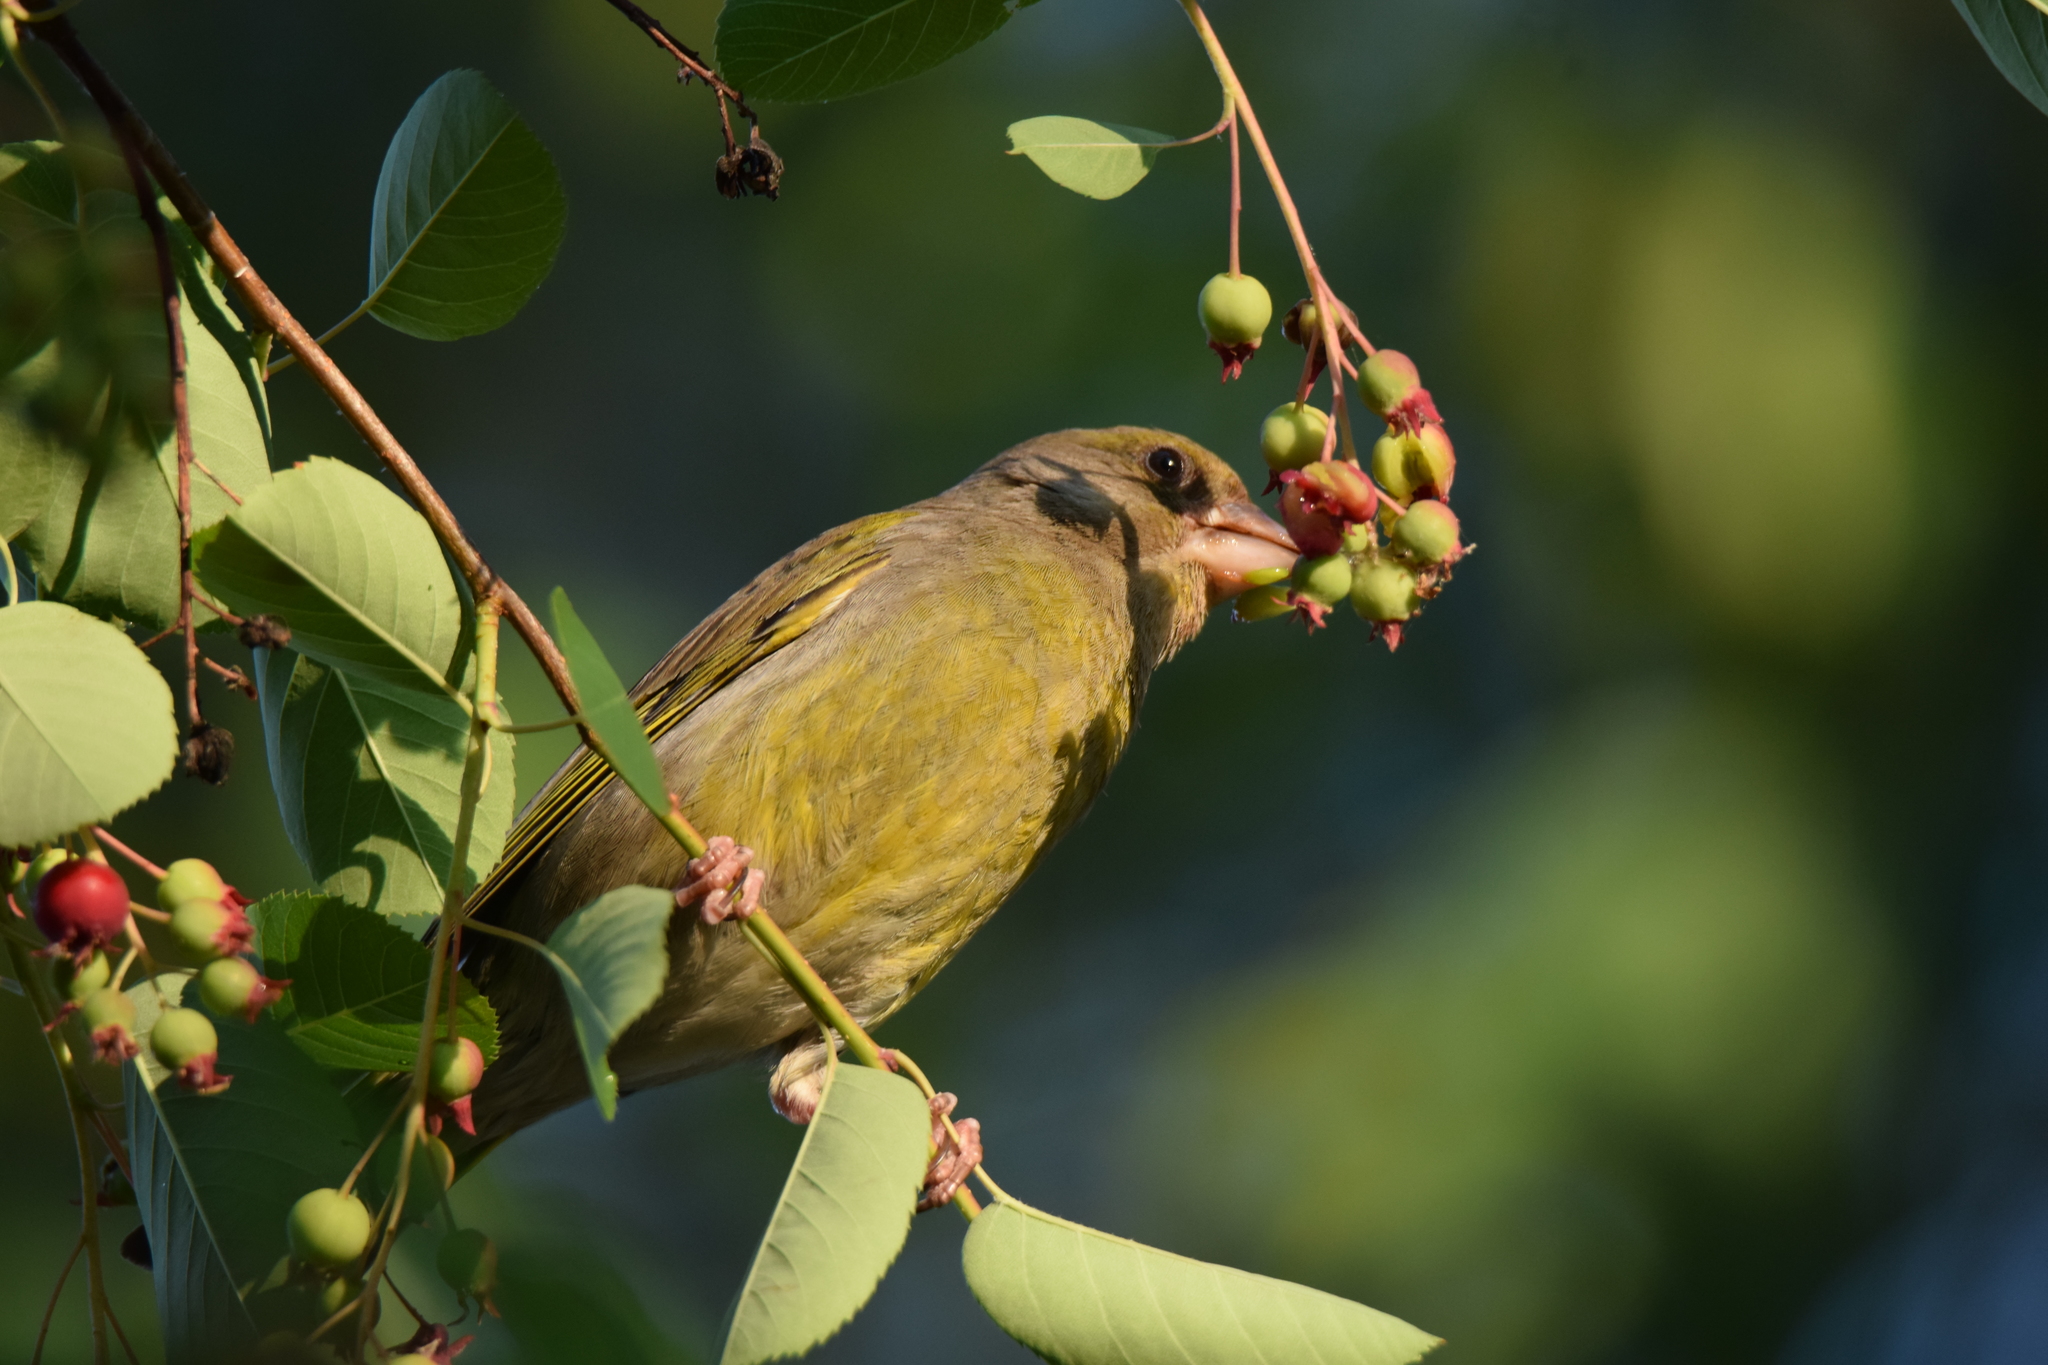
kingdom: Plantae
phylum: Tracheophyta
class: Liliopsida
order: Poales
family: Poaceae
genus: Chloris
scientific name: Chloris chloris
